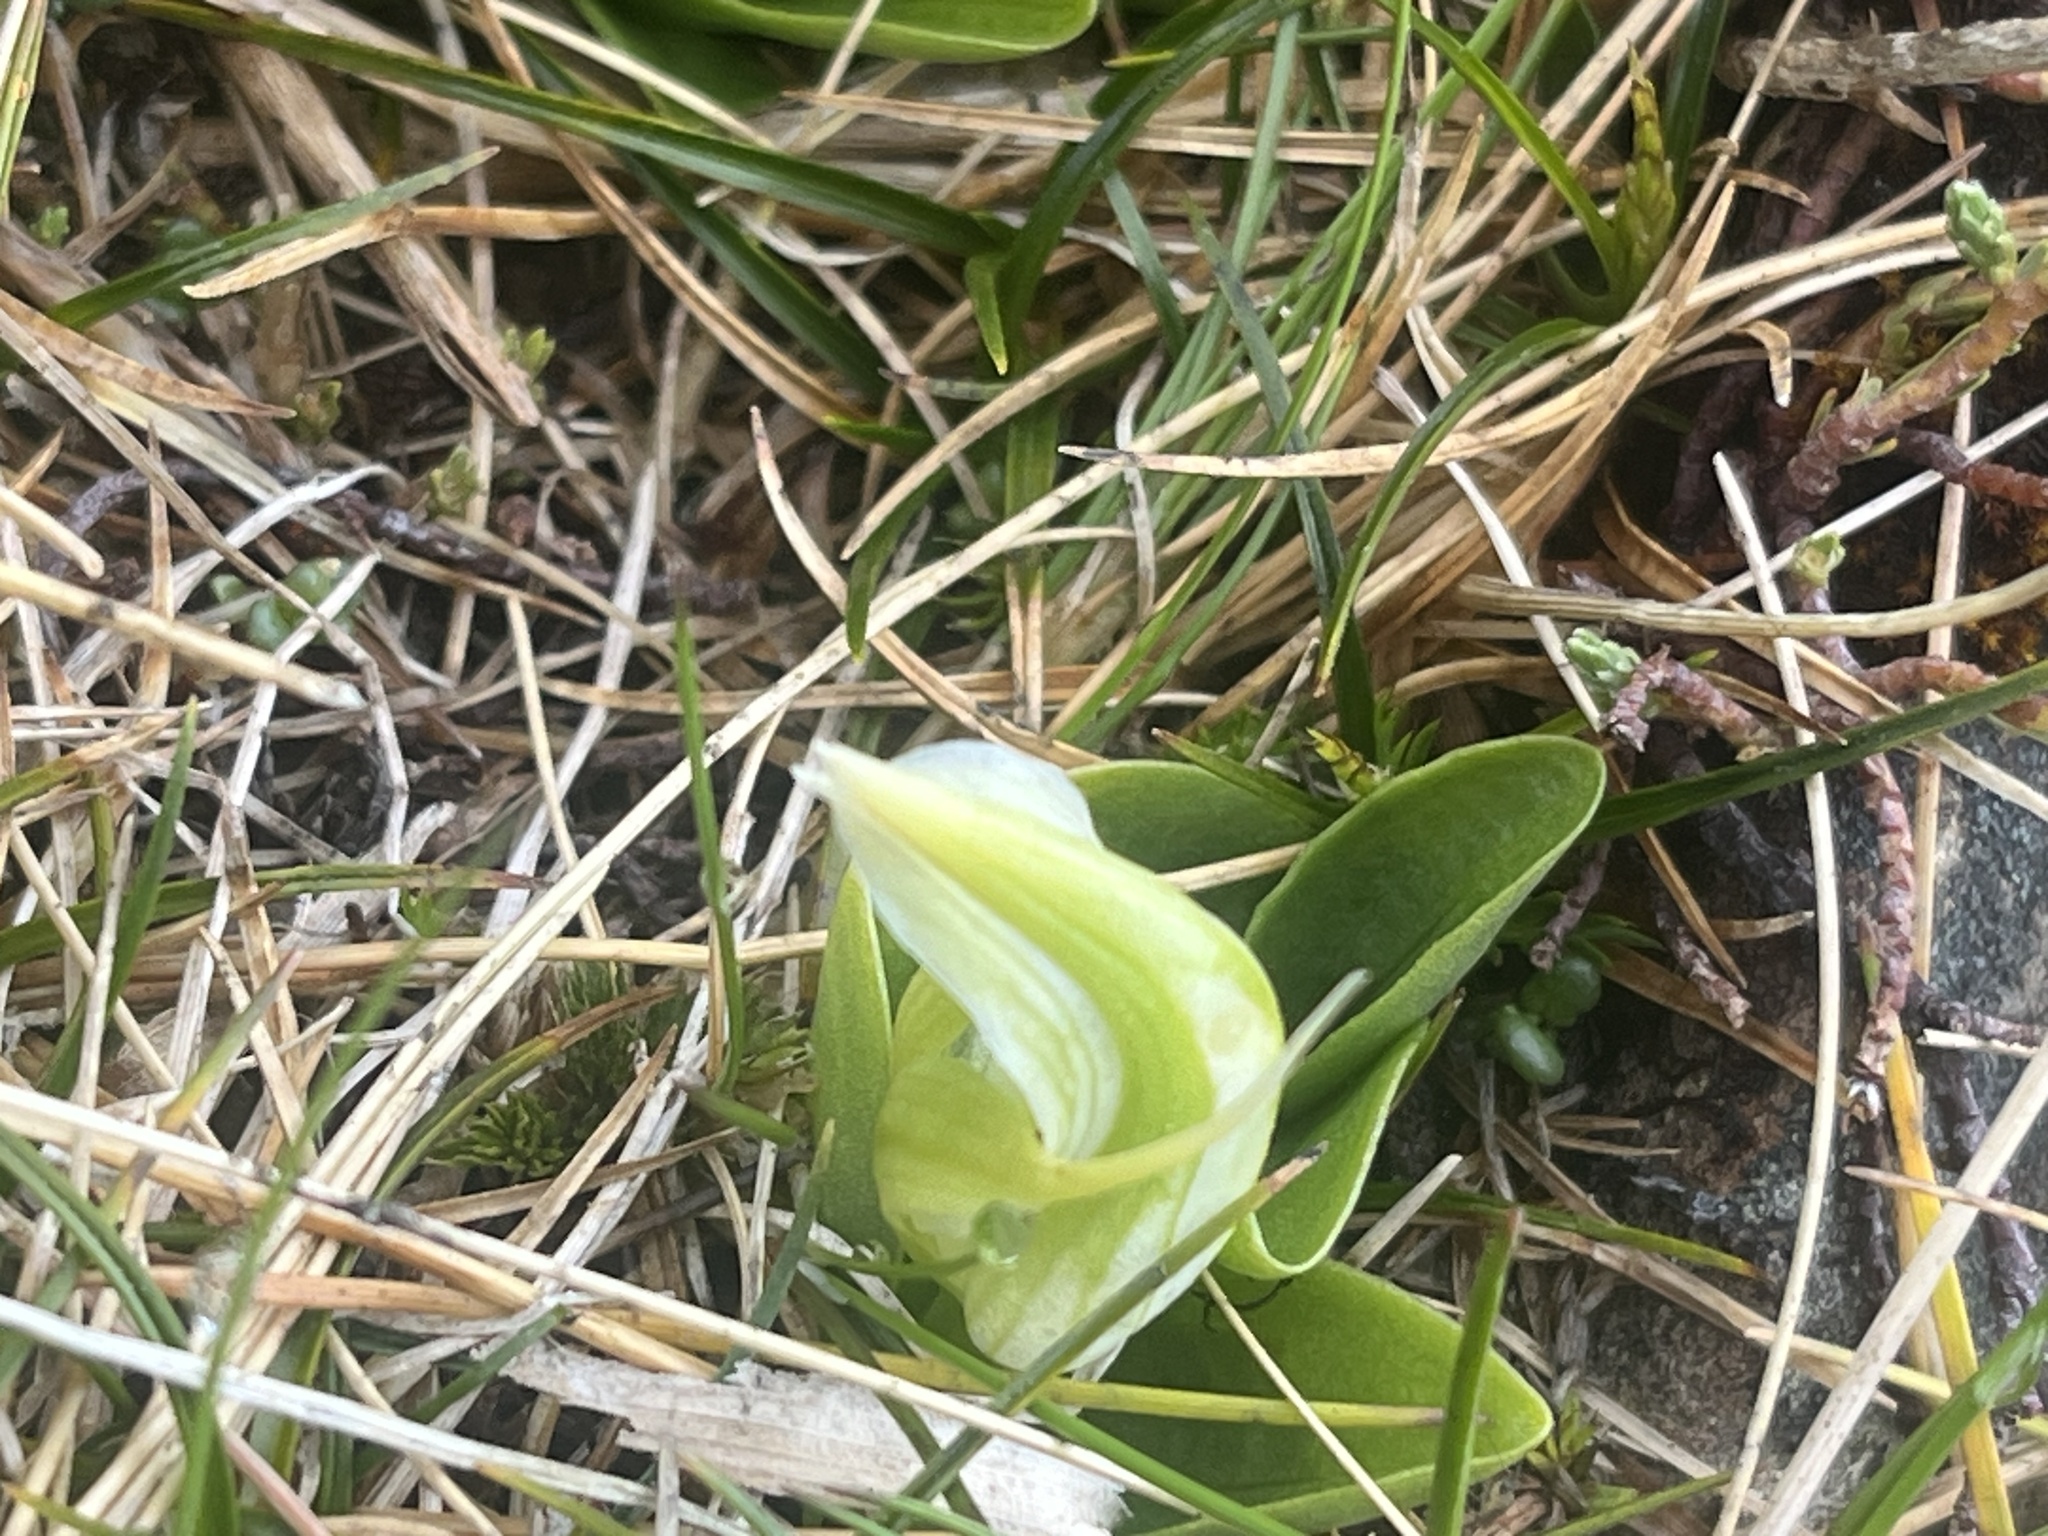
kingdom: Plantae
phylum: Tracheophyta
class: Liliopsida
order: Asparagales
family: Orchidaceae
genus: Pterostylis
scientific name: Pterostylis venosa
